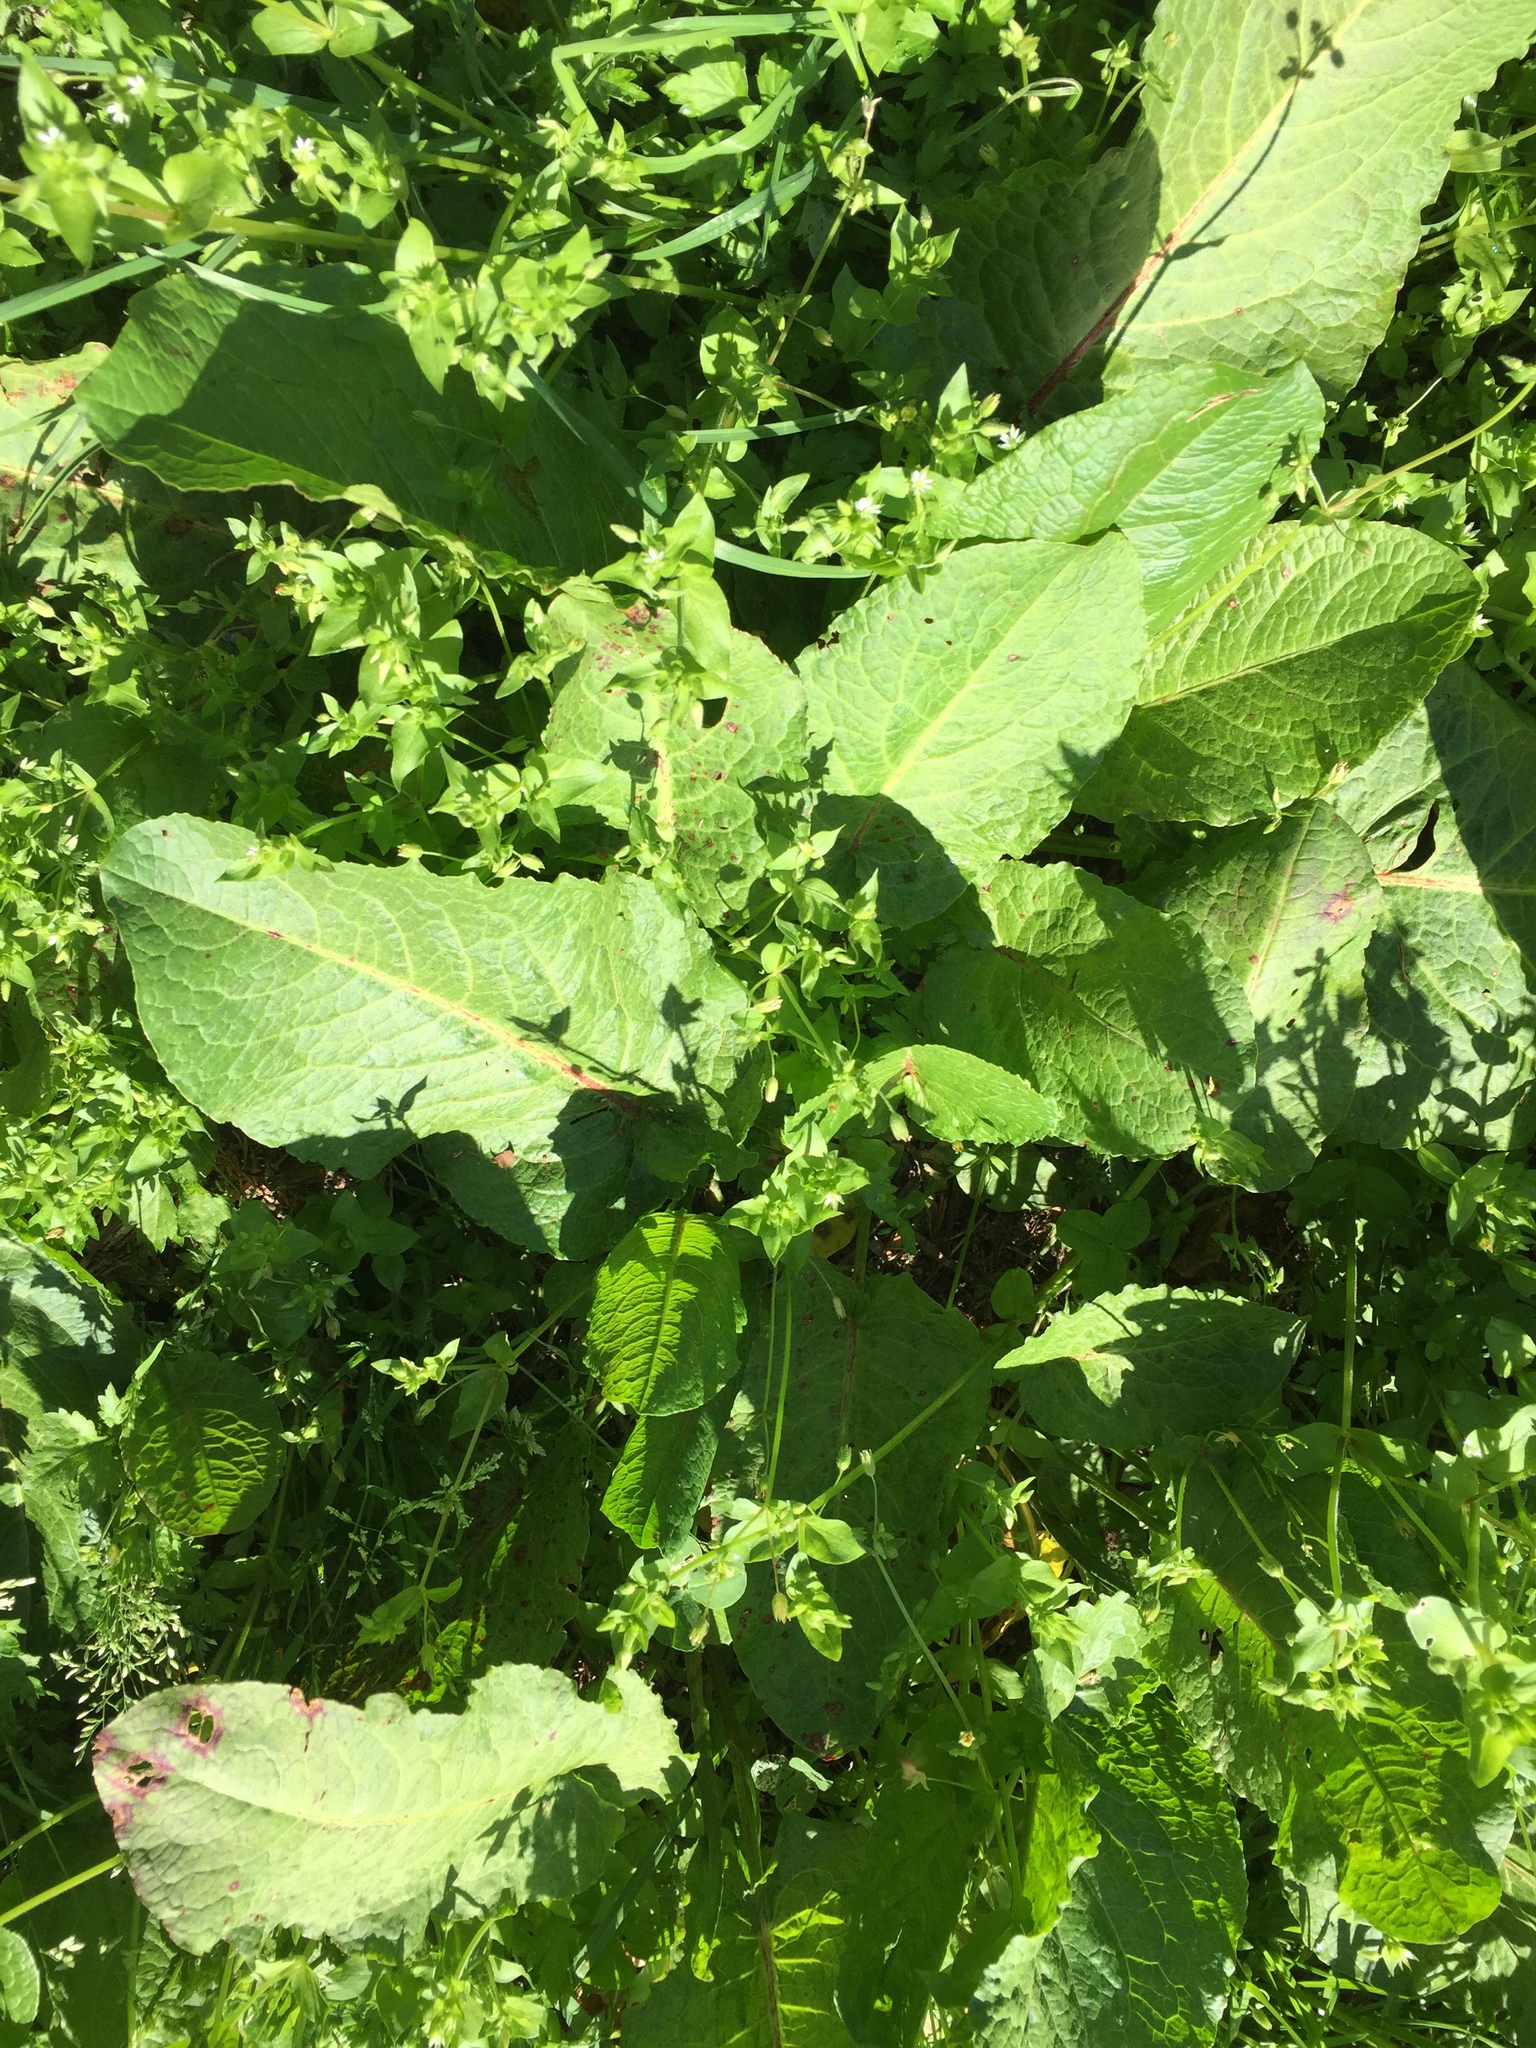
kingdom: Plantae
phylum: Tracheophyta
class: Magnoliopsida
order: Caryophyllales
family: Polygonaceae
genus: Rumex
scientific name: Rumex obtusifolius
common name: Bitter dock
